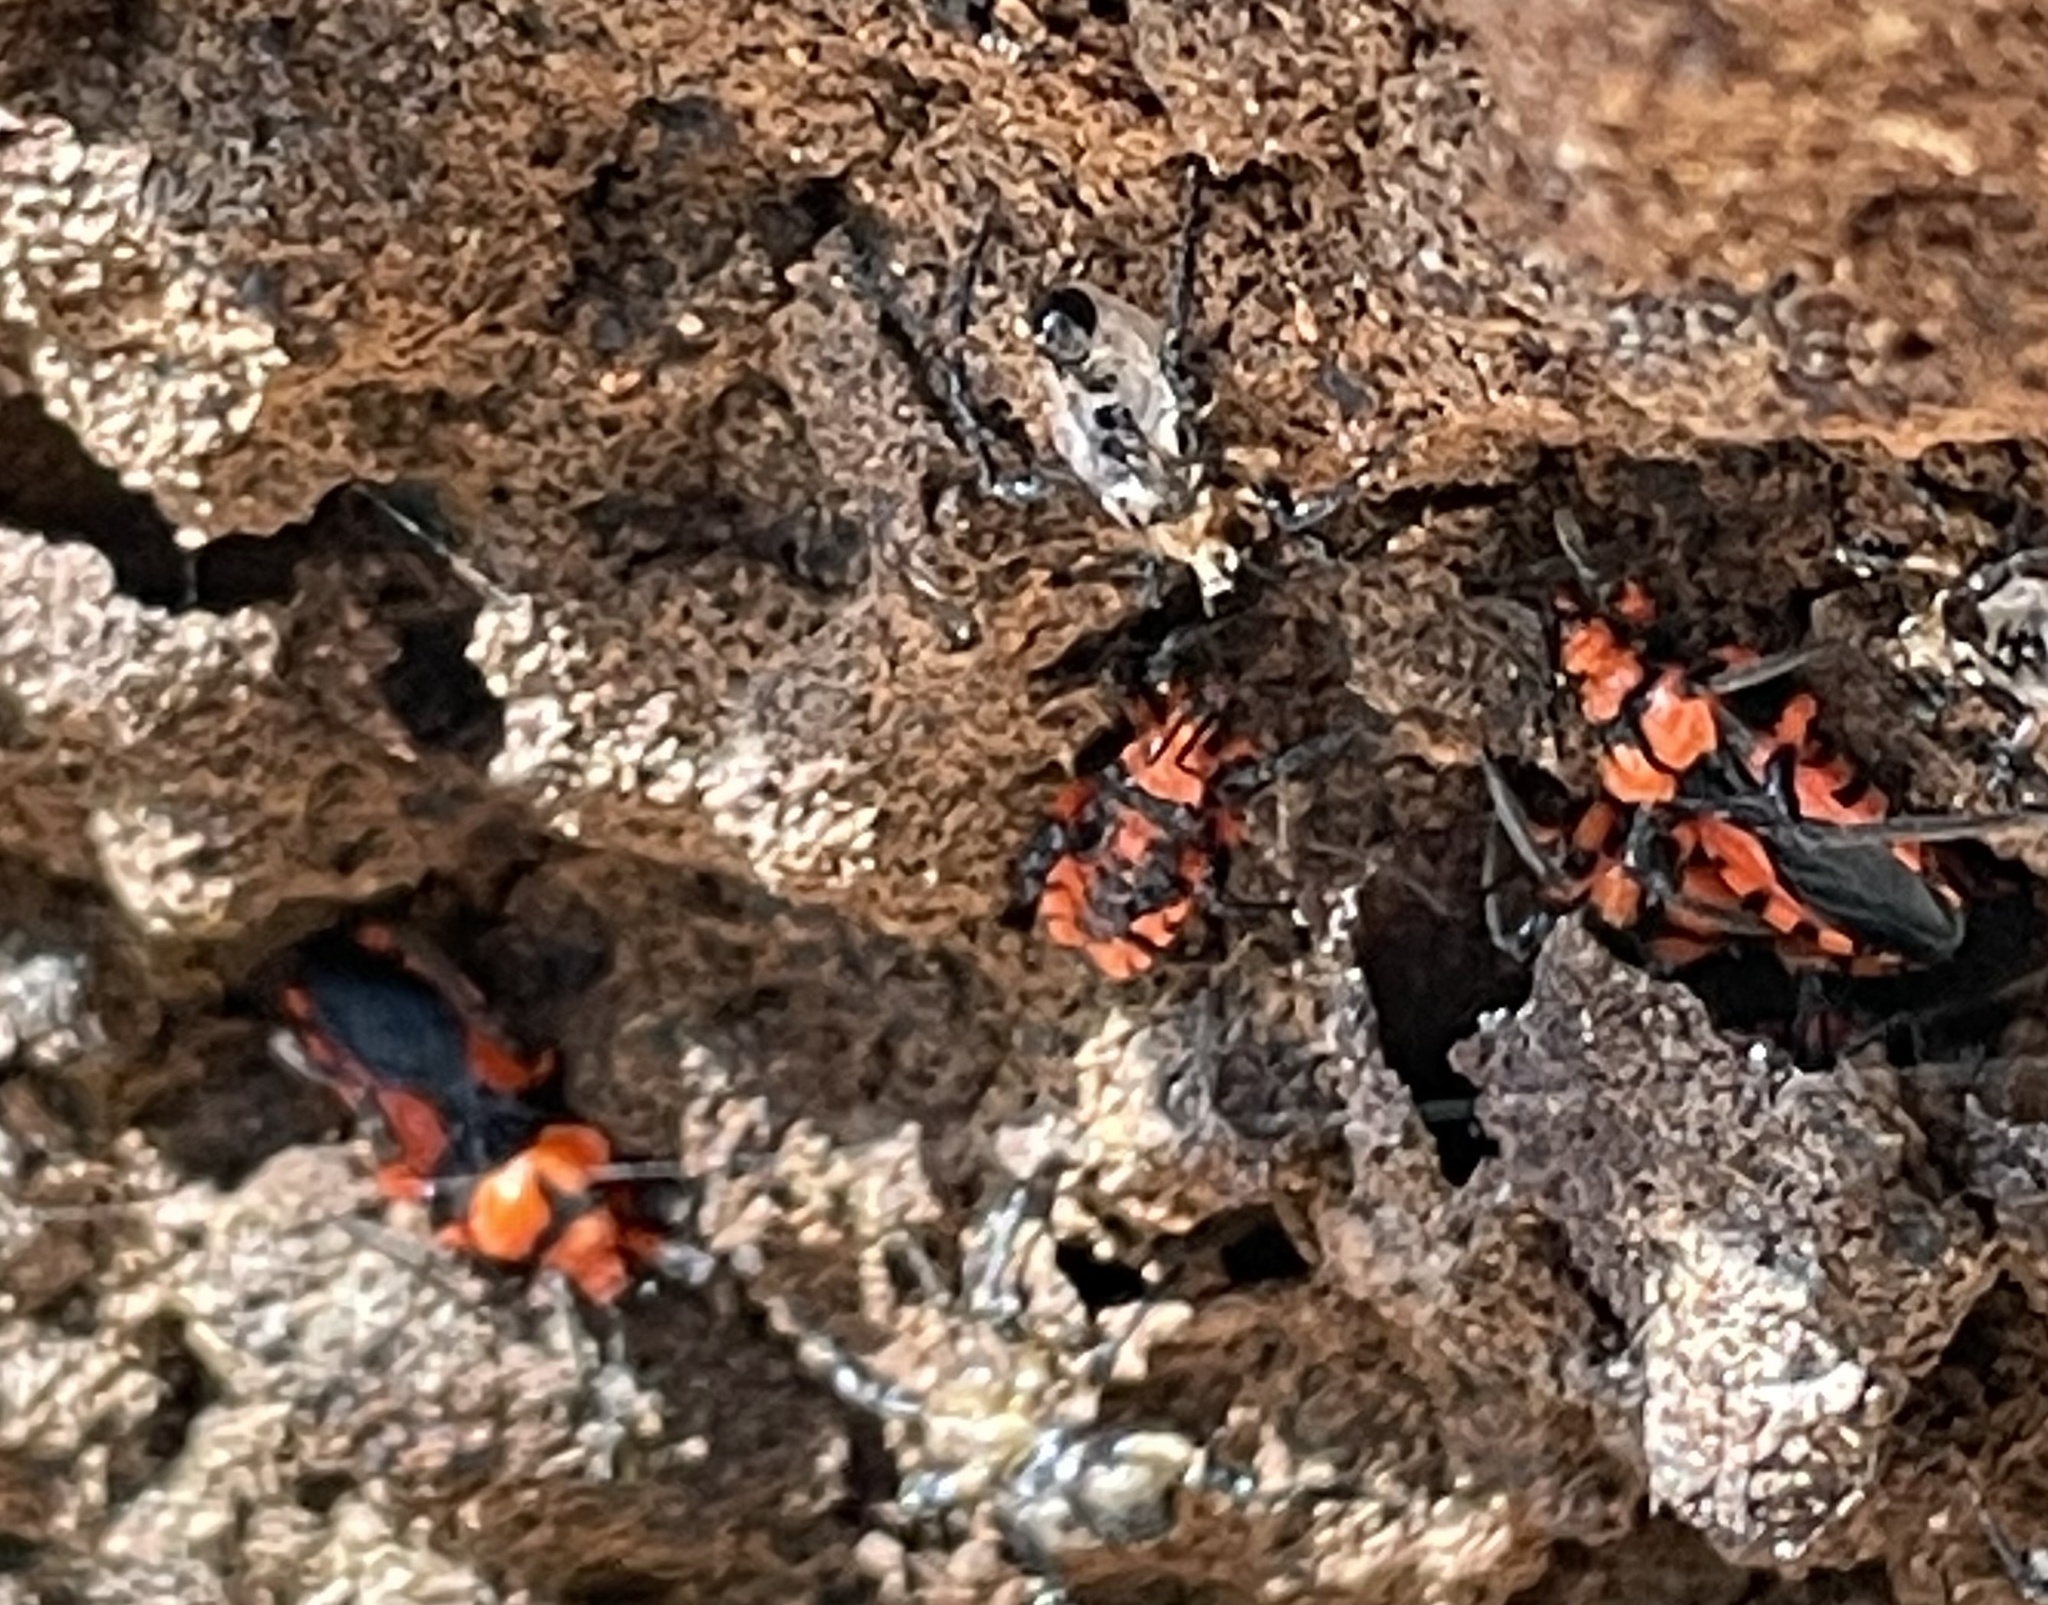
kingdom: Animalia
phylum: Arthropoda
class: Insecta
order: Hemiptera
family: Reduviidae
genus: Tegea
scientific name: Tegea atropicta
